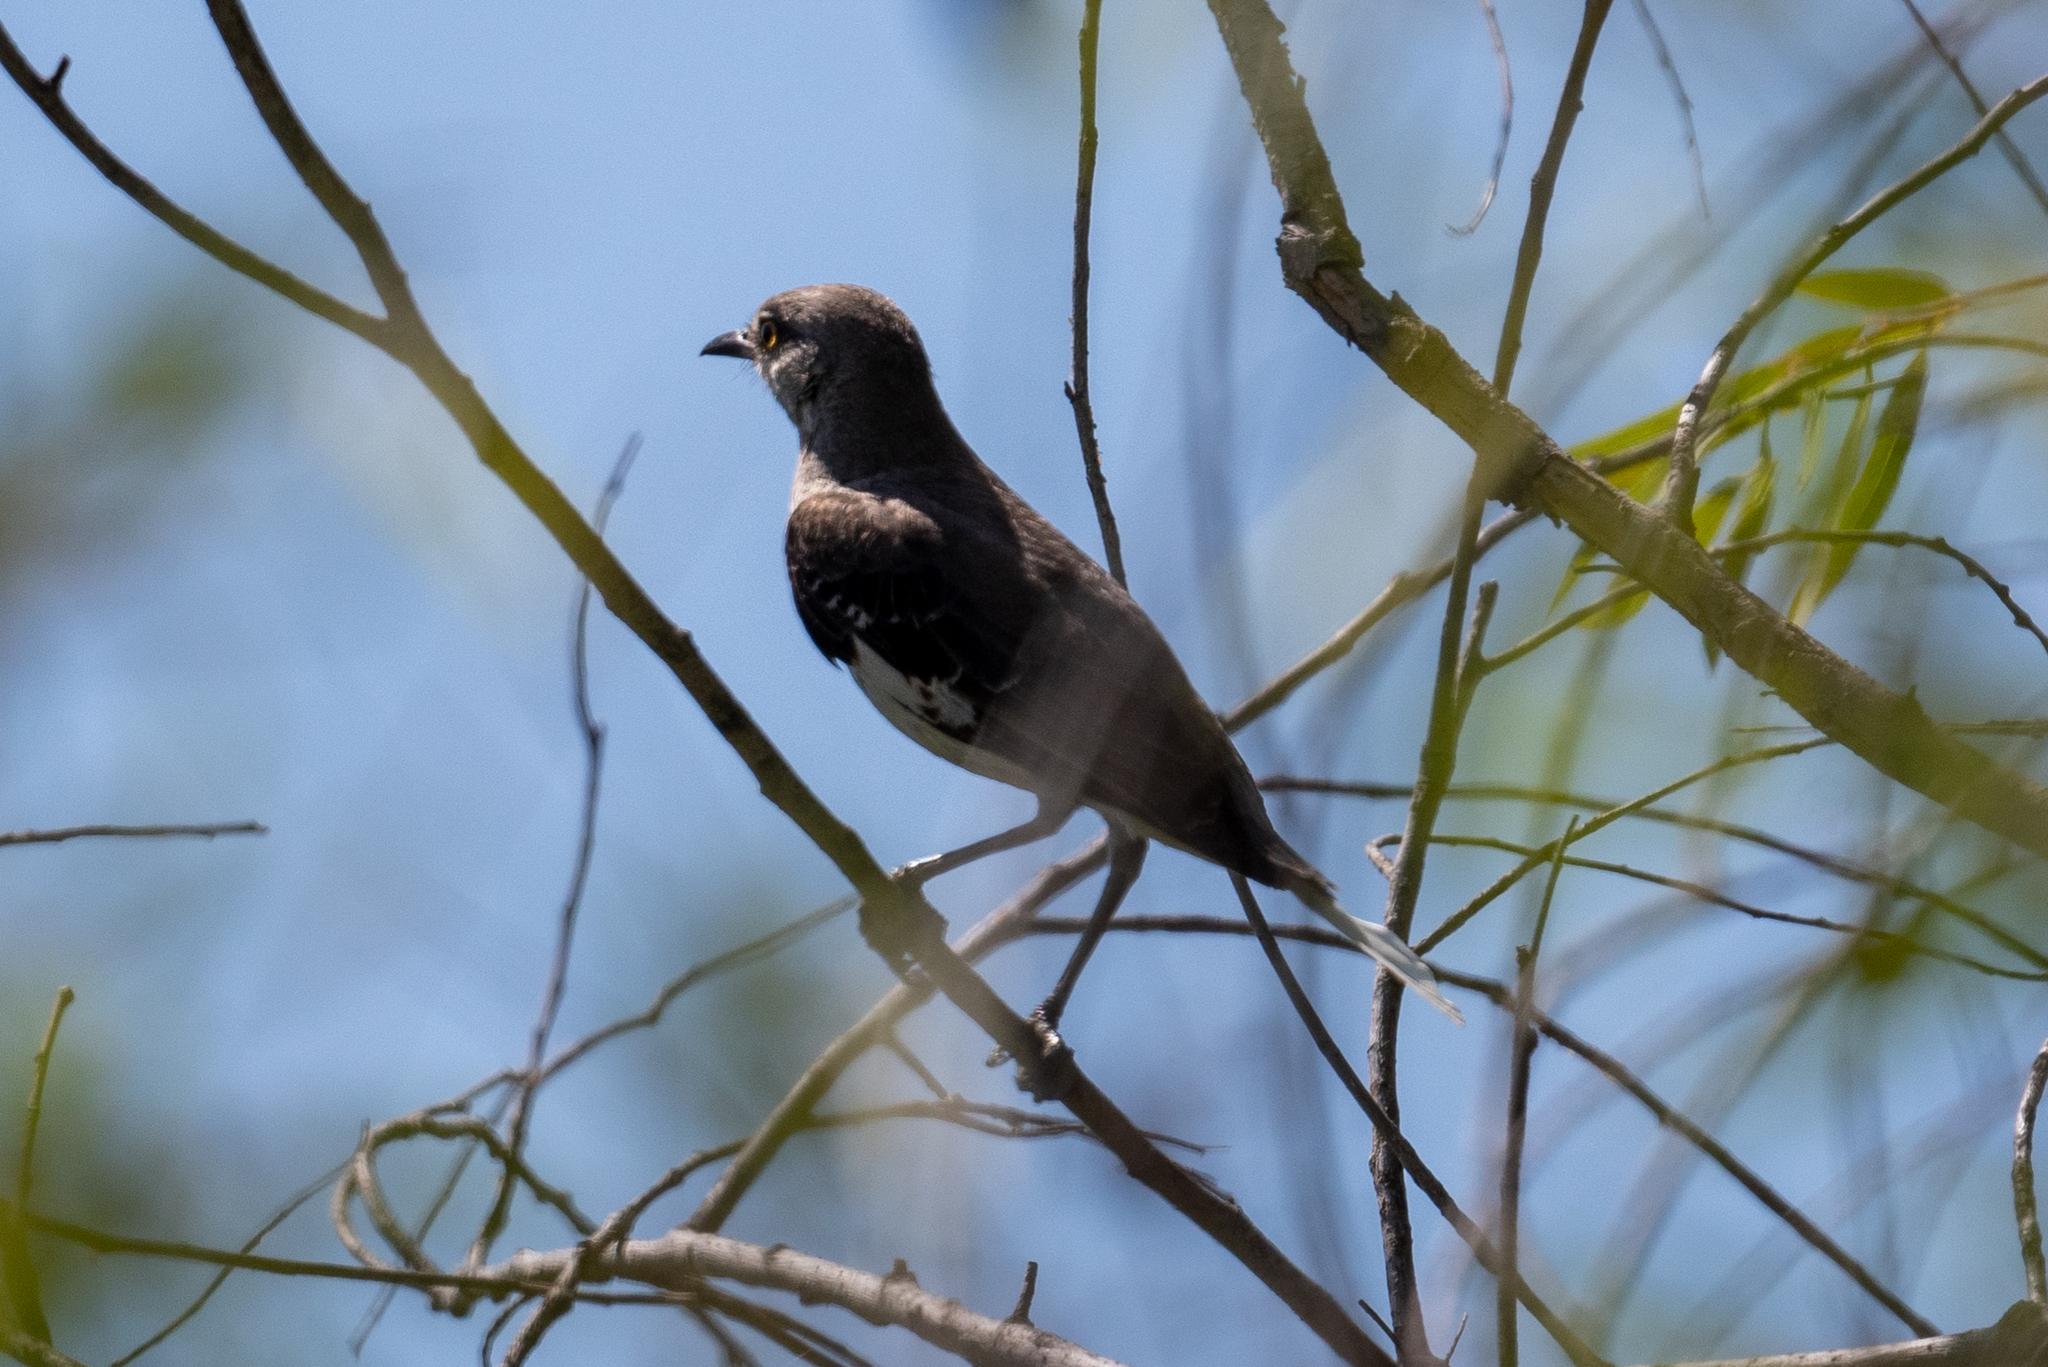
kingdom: Animalia
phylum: Chordata
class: Aves
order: Passeriformes
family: Mimidae
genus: Mimus
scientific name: Mimus polyglottos
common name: Northern mockingbird
